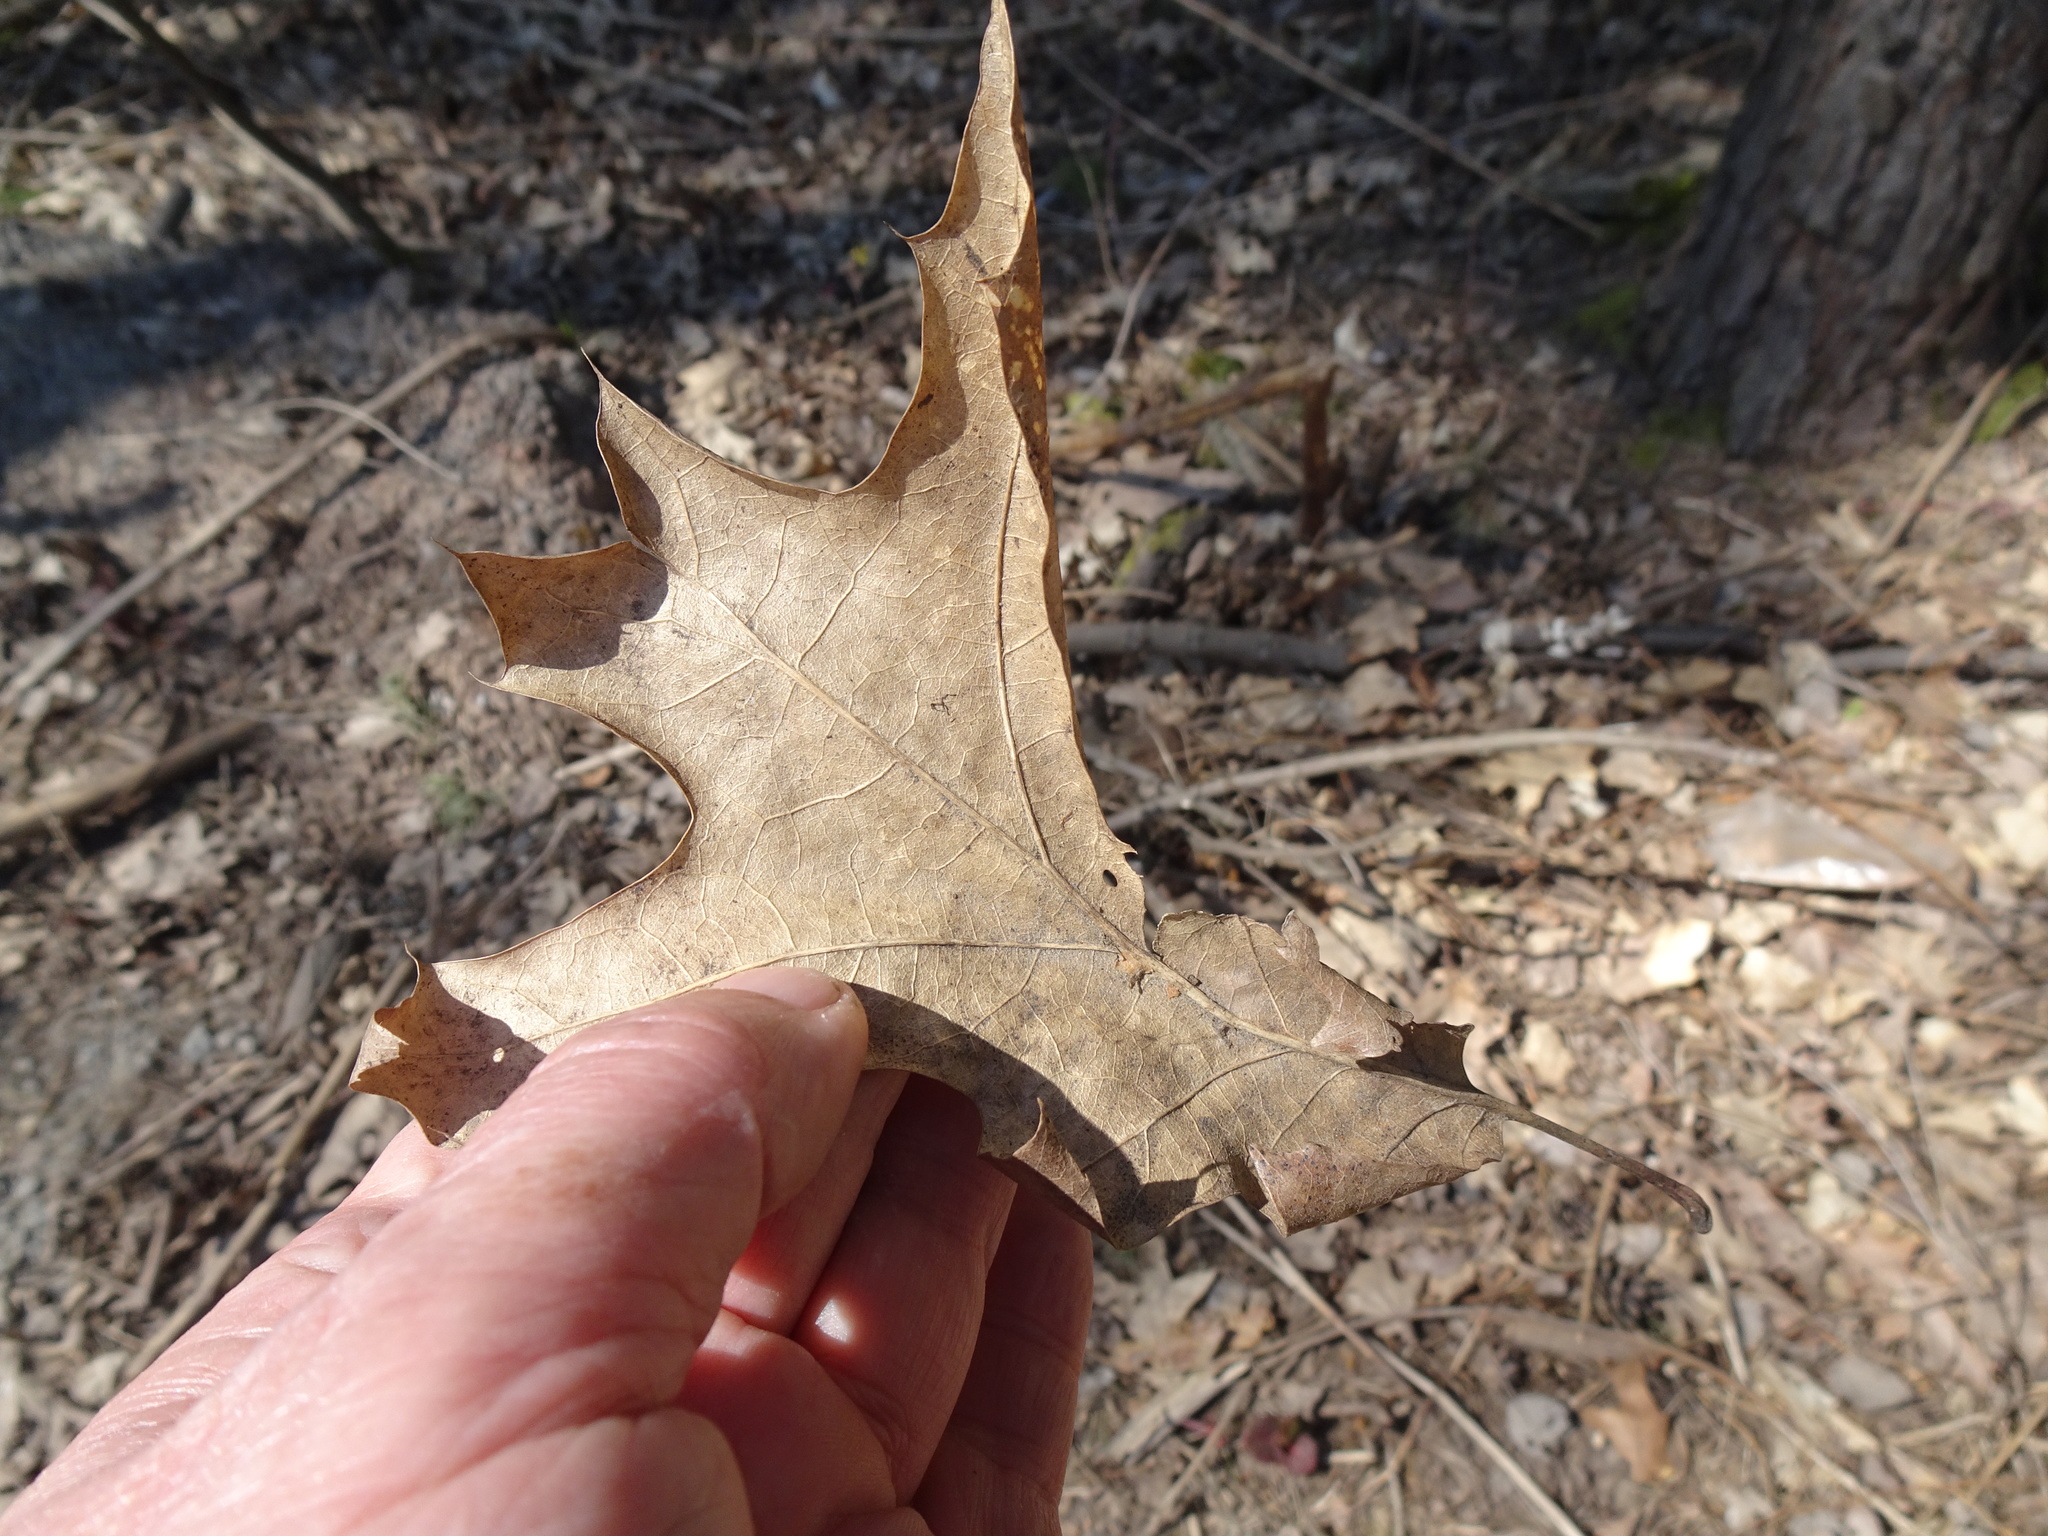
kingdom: Plantae
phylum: Tracheophyta
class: Magnoliopsida
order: Fagales
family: Fagaceae
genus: Quercus
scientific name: Quercus rubra
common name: Red oak
